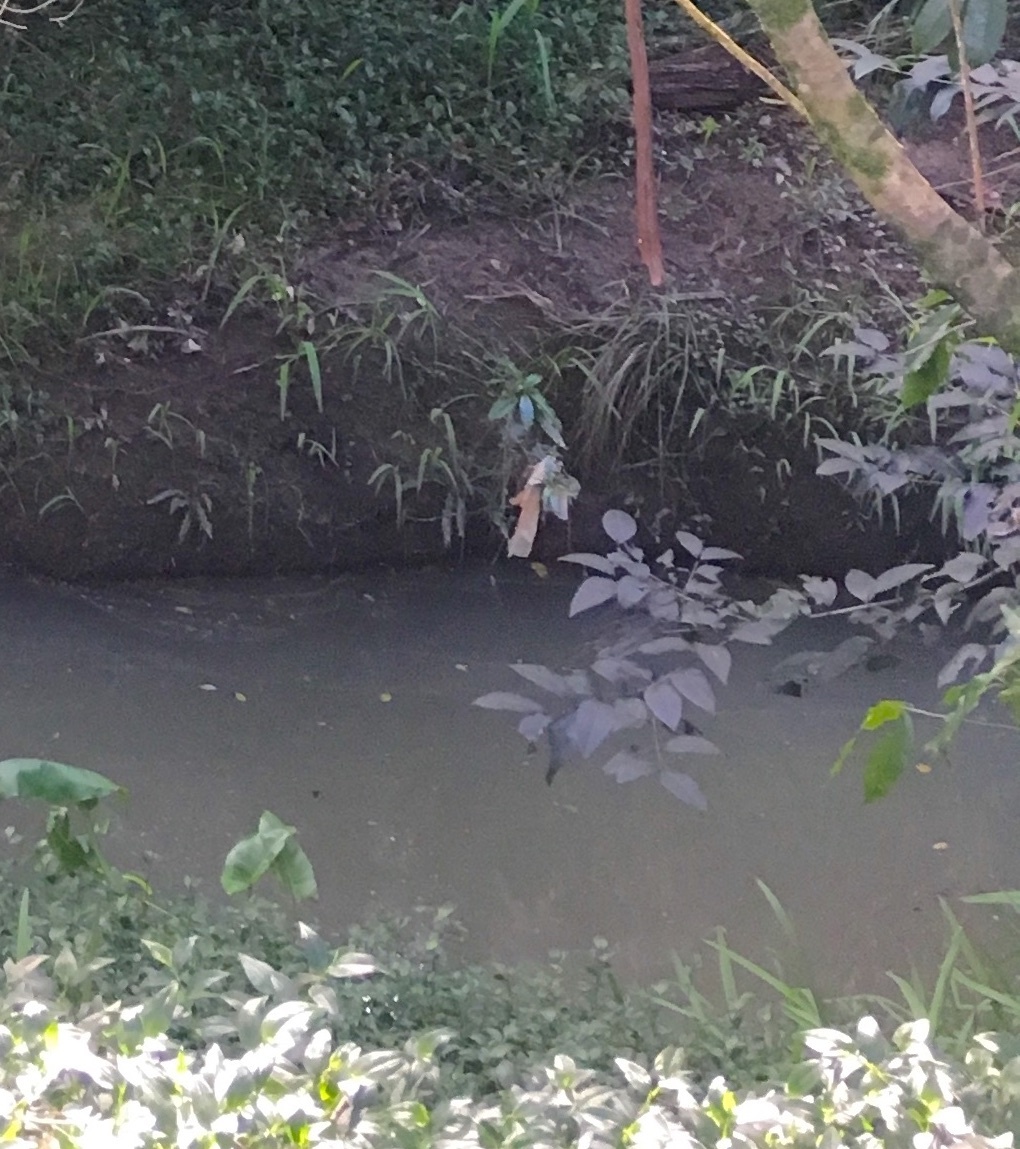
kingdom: Plantae
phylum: Tracheophyta
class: Magnoliopsida
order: Lamiales
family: Oleaceae
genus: Ligustrum
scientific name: Ligustrum lucidum
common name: Glossy privet
